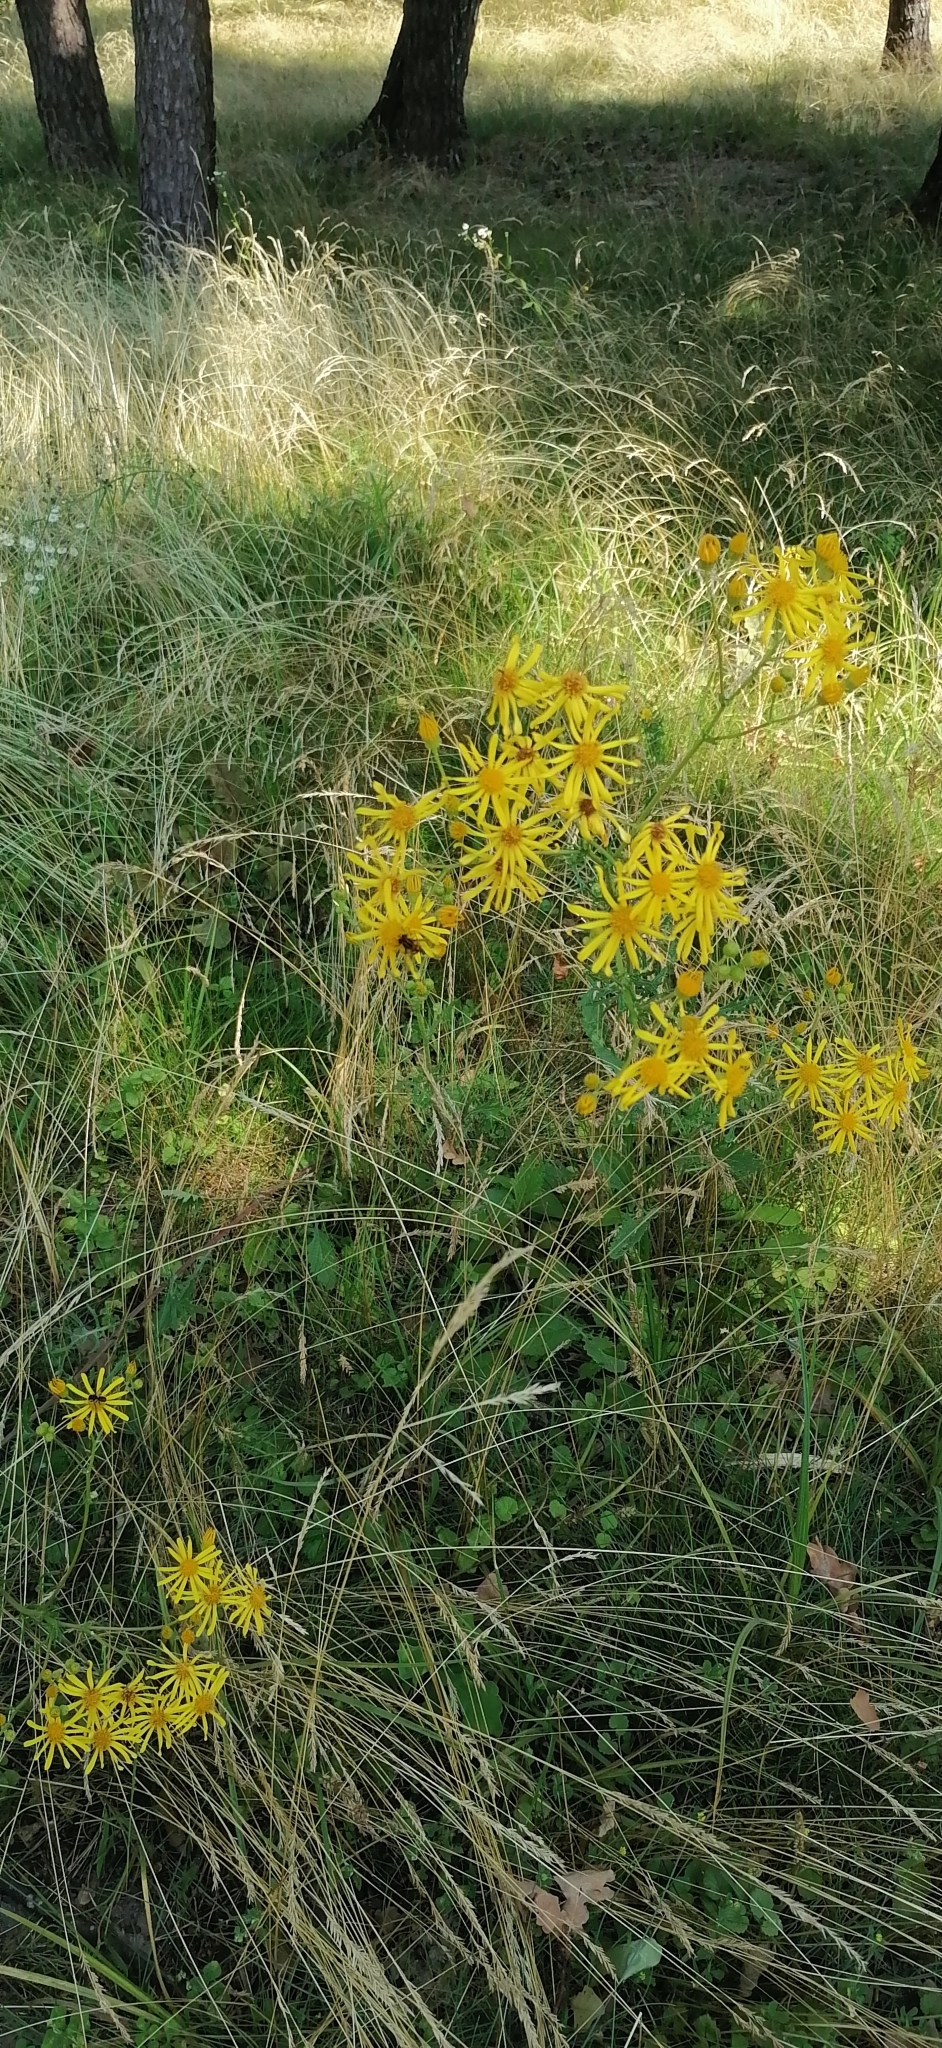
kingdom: Plantae
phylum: Tracheophyta
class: Magnoliopsida
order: Asterales
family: Asteraceae
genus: Jacobaea
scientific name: Jacobaea vulgaris
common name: Stinking willie
